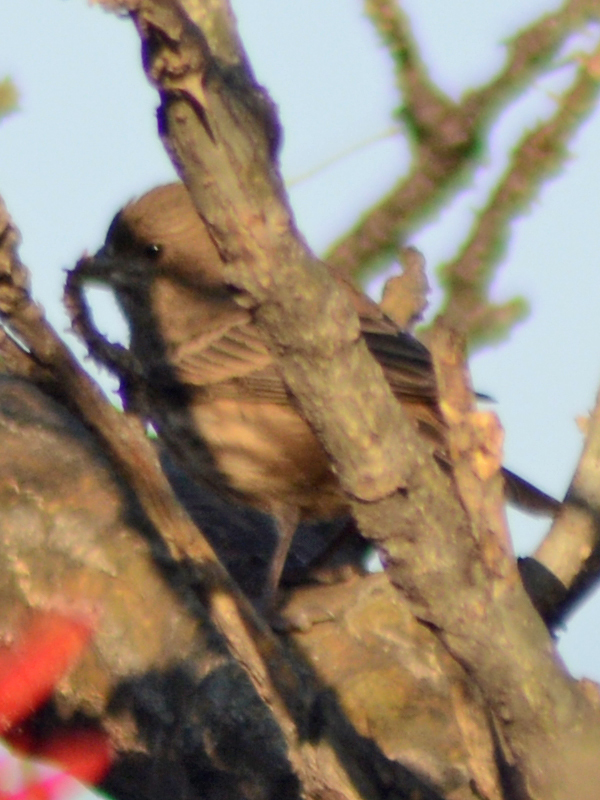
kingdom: Animalia
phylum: Chordata
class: Aves
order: Passeriformes
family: Fringillidae
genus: Haemorhous
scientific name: Haemorhous mexicanus
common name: House finch
